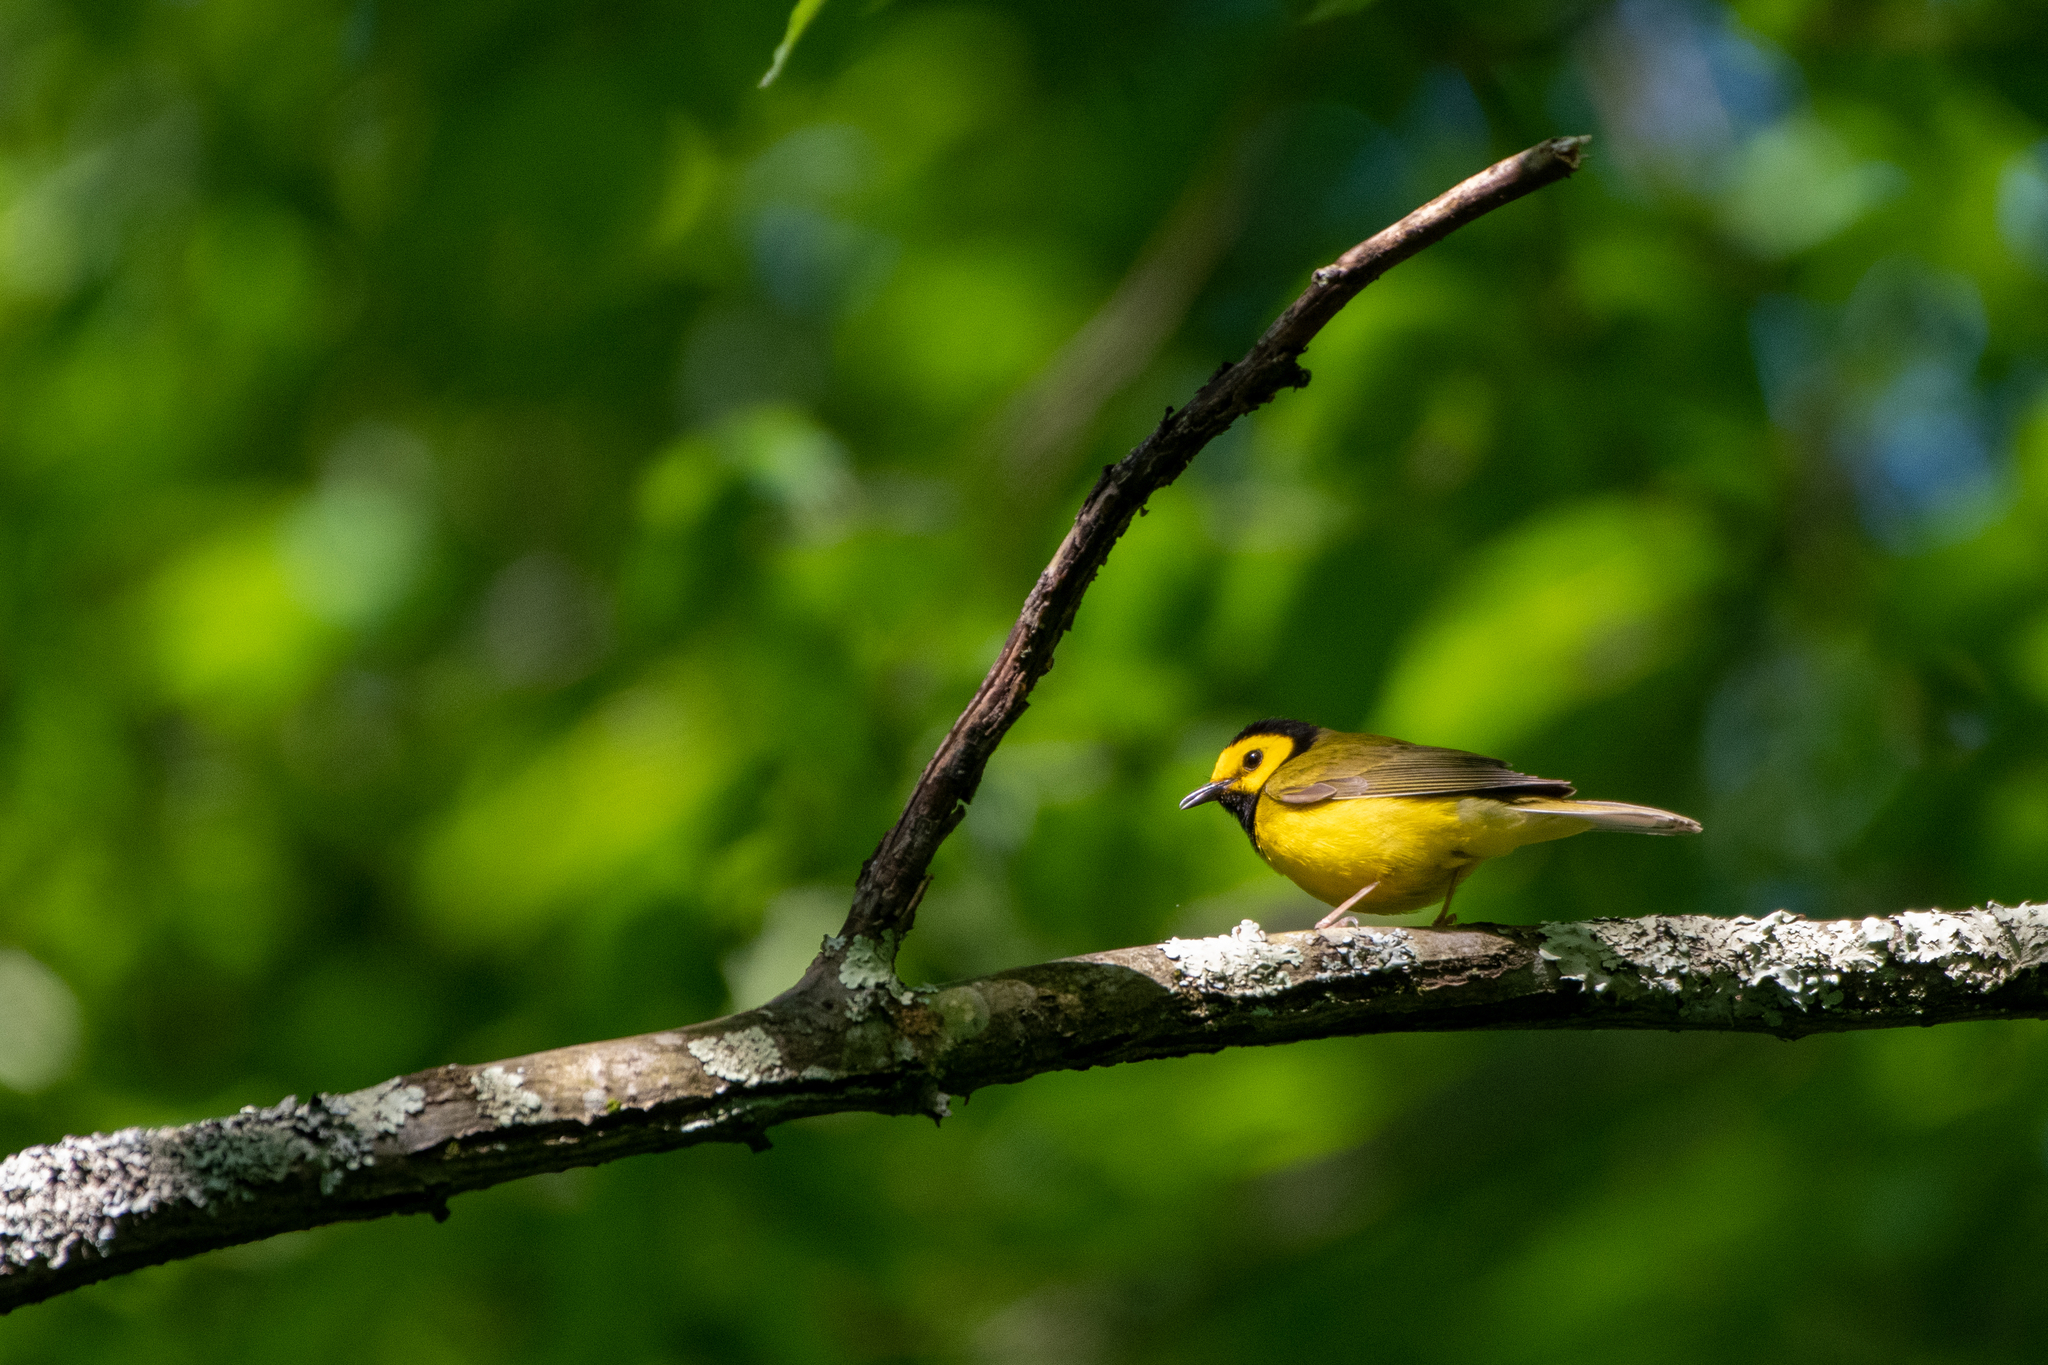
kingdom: Animalia
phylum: Chordata
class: Aves
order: Passeriformes
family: Parulidae
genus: Setophaga
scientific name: Setophaga citrina
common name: Hooded warbler
